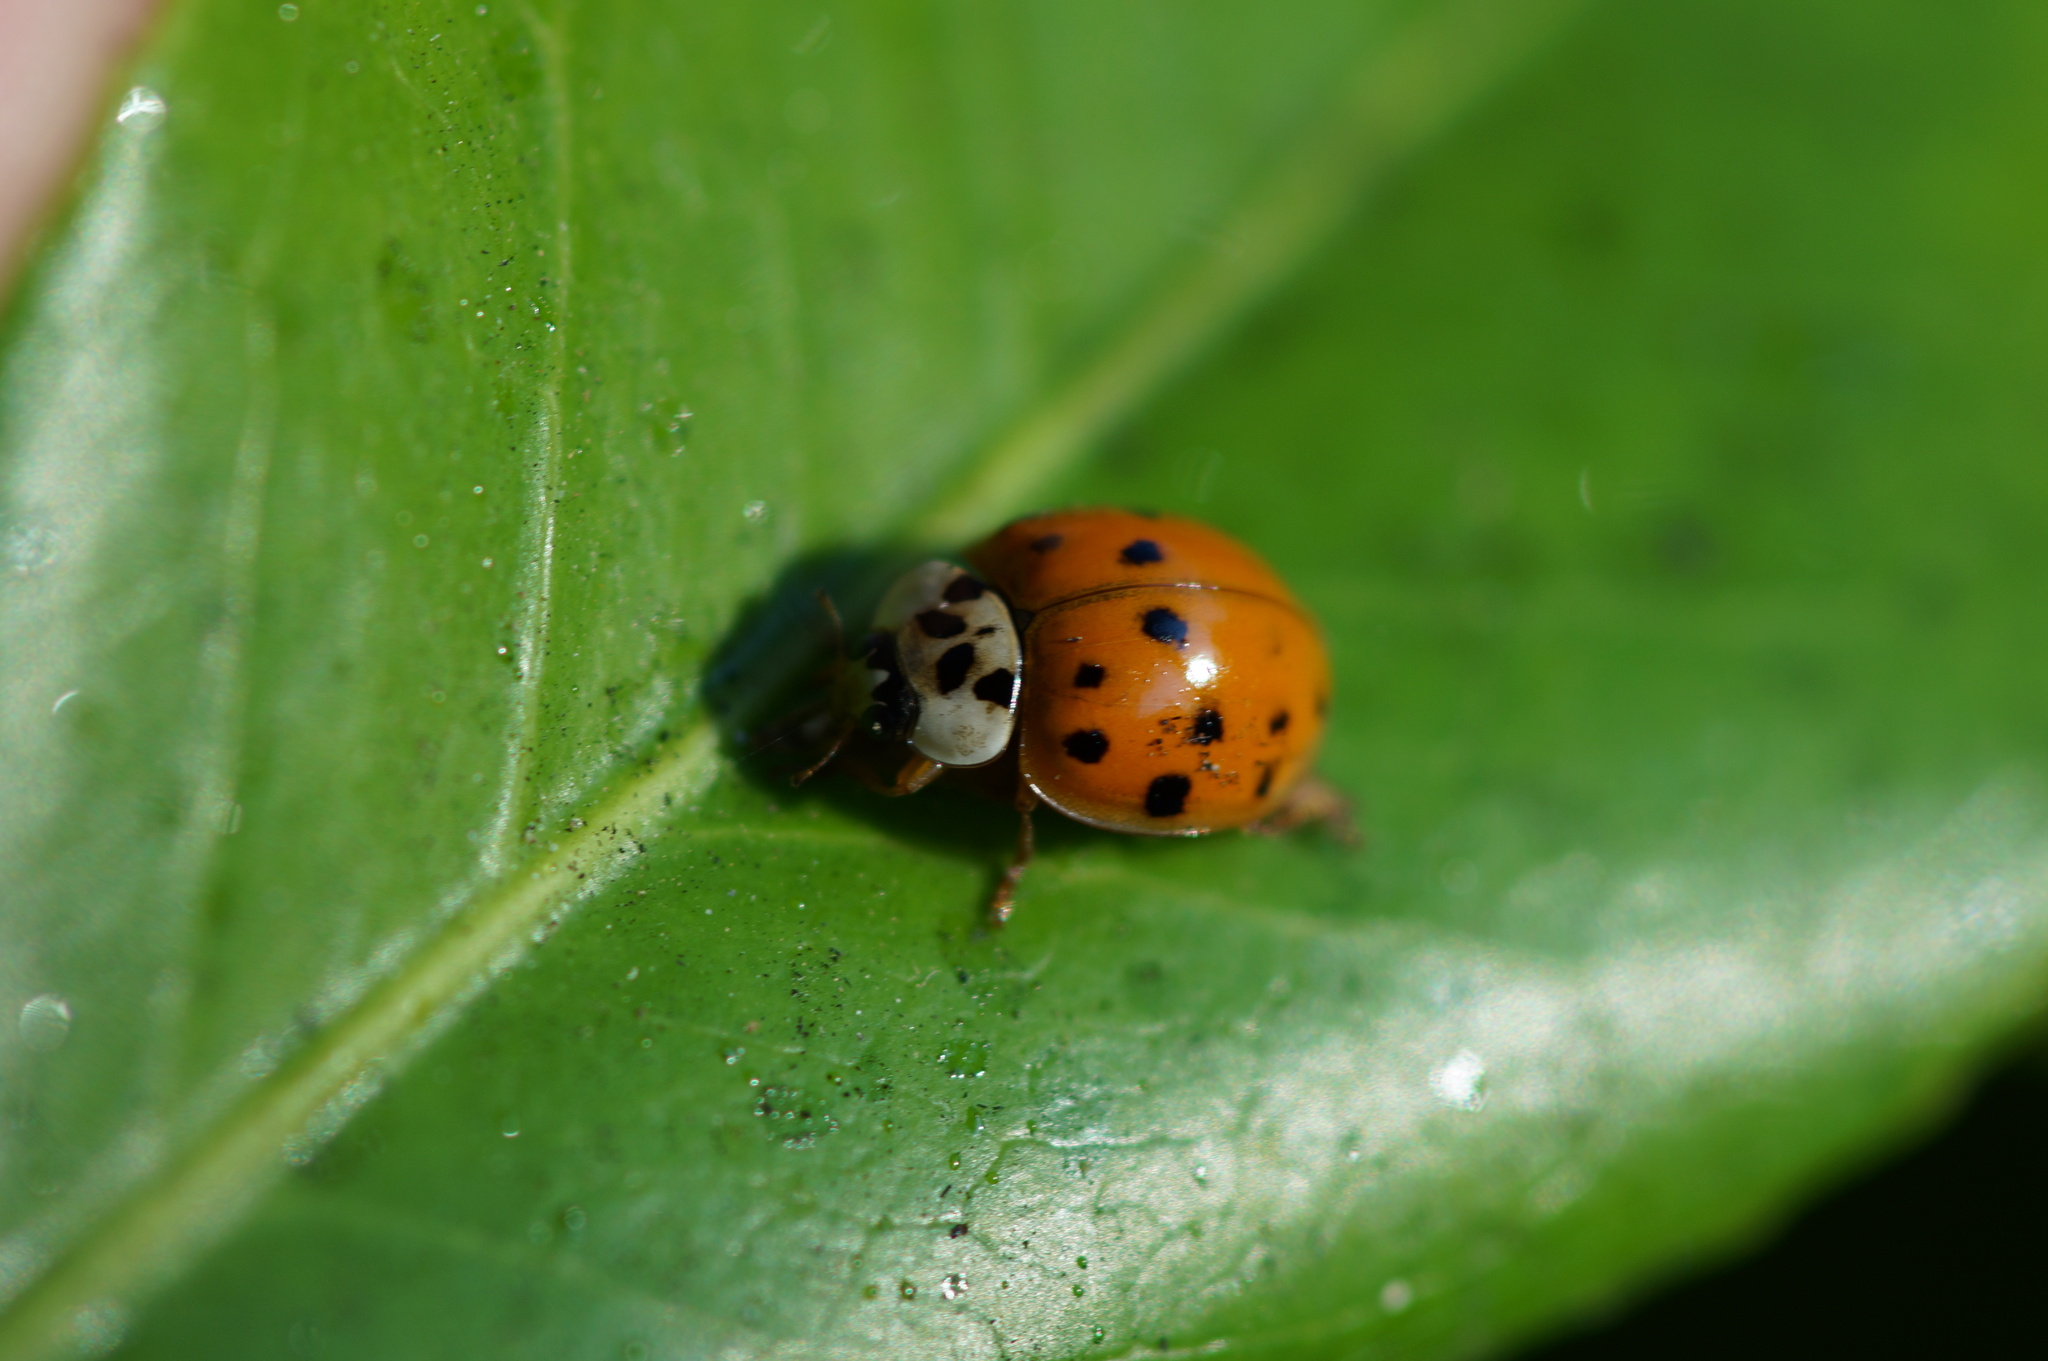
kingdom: Animalia
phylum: Arthropoda
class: Insecta
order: Coleoptera
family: Coccinellidae
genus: Harmonia
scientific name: Harmonia axyridis
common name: Harlequin ladybird
